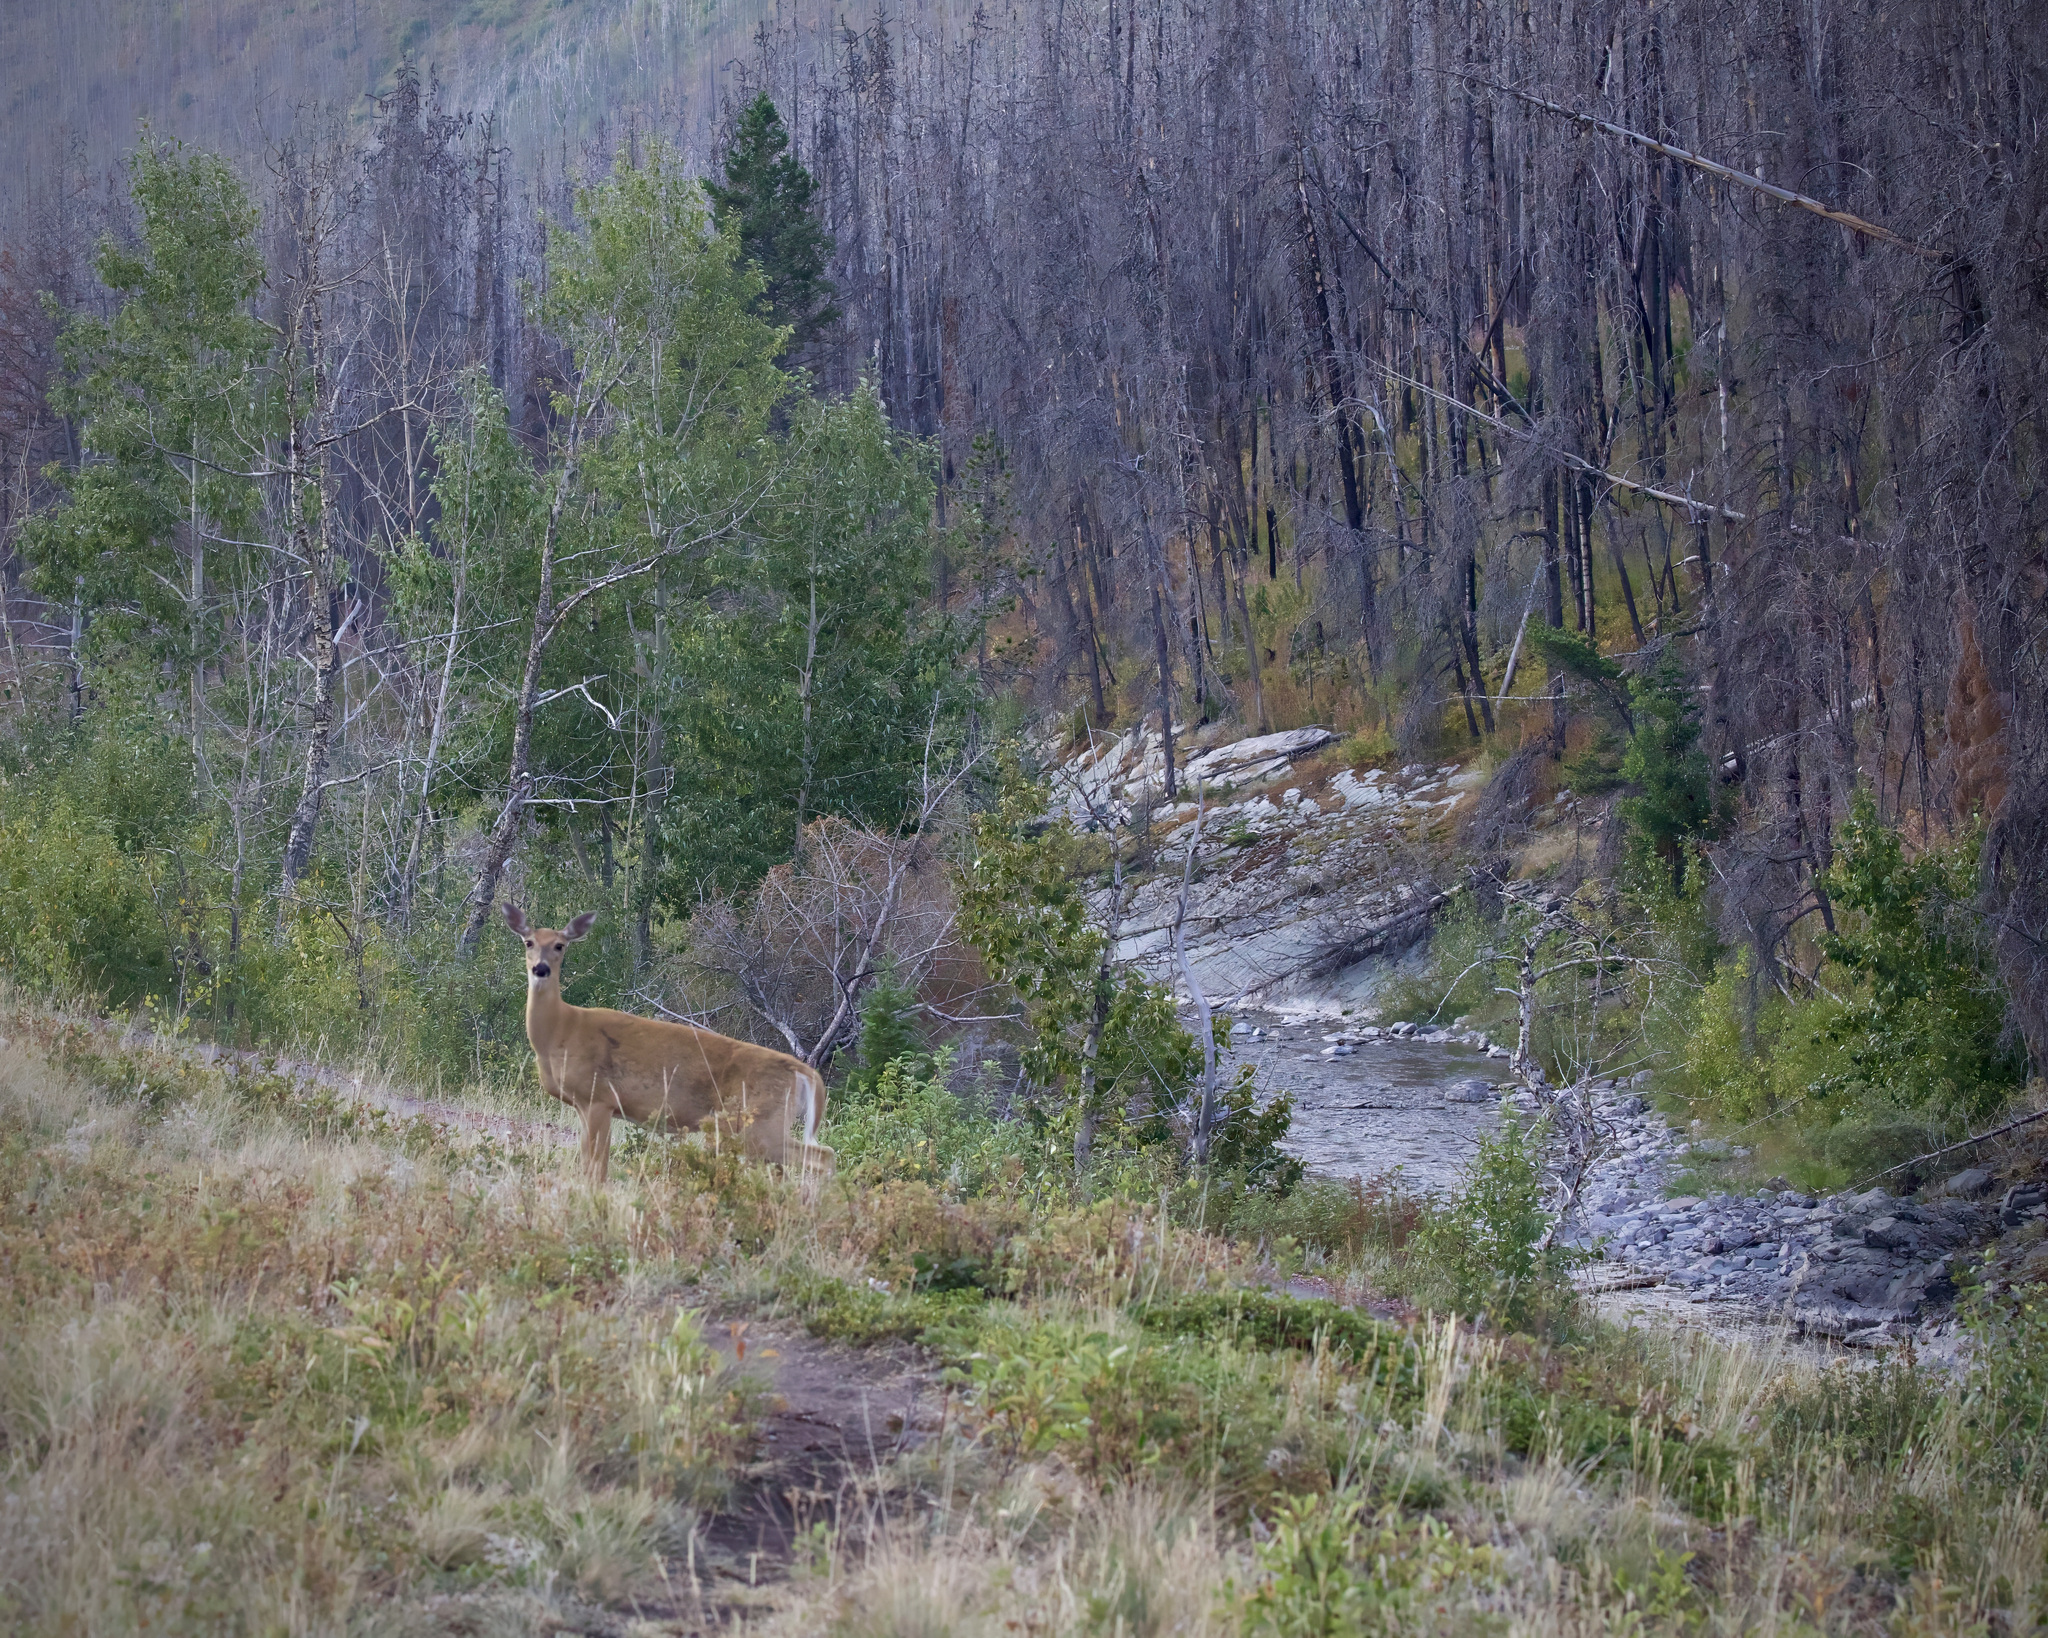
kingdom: Animalia
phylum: Chordata
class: Mammalia
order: Artiodactyla
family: Cervidae
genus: Odocoileus
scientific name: Odocoileus virginianus
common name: White-tailed deer
